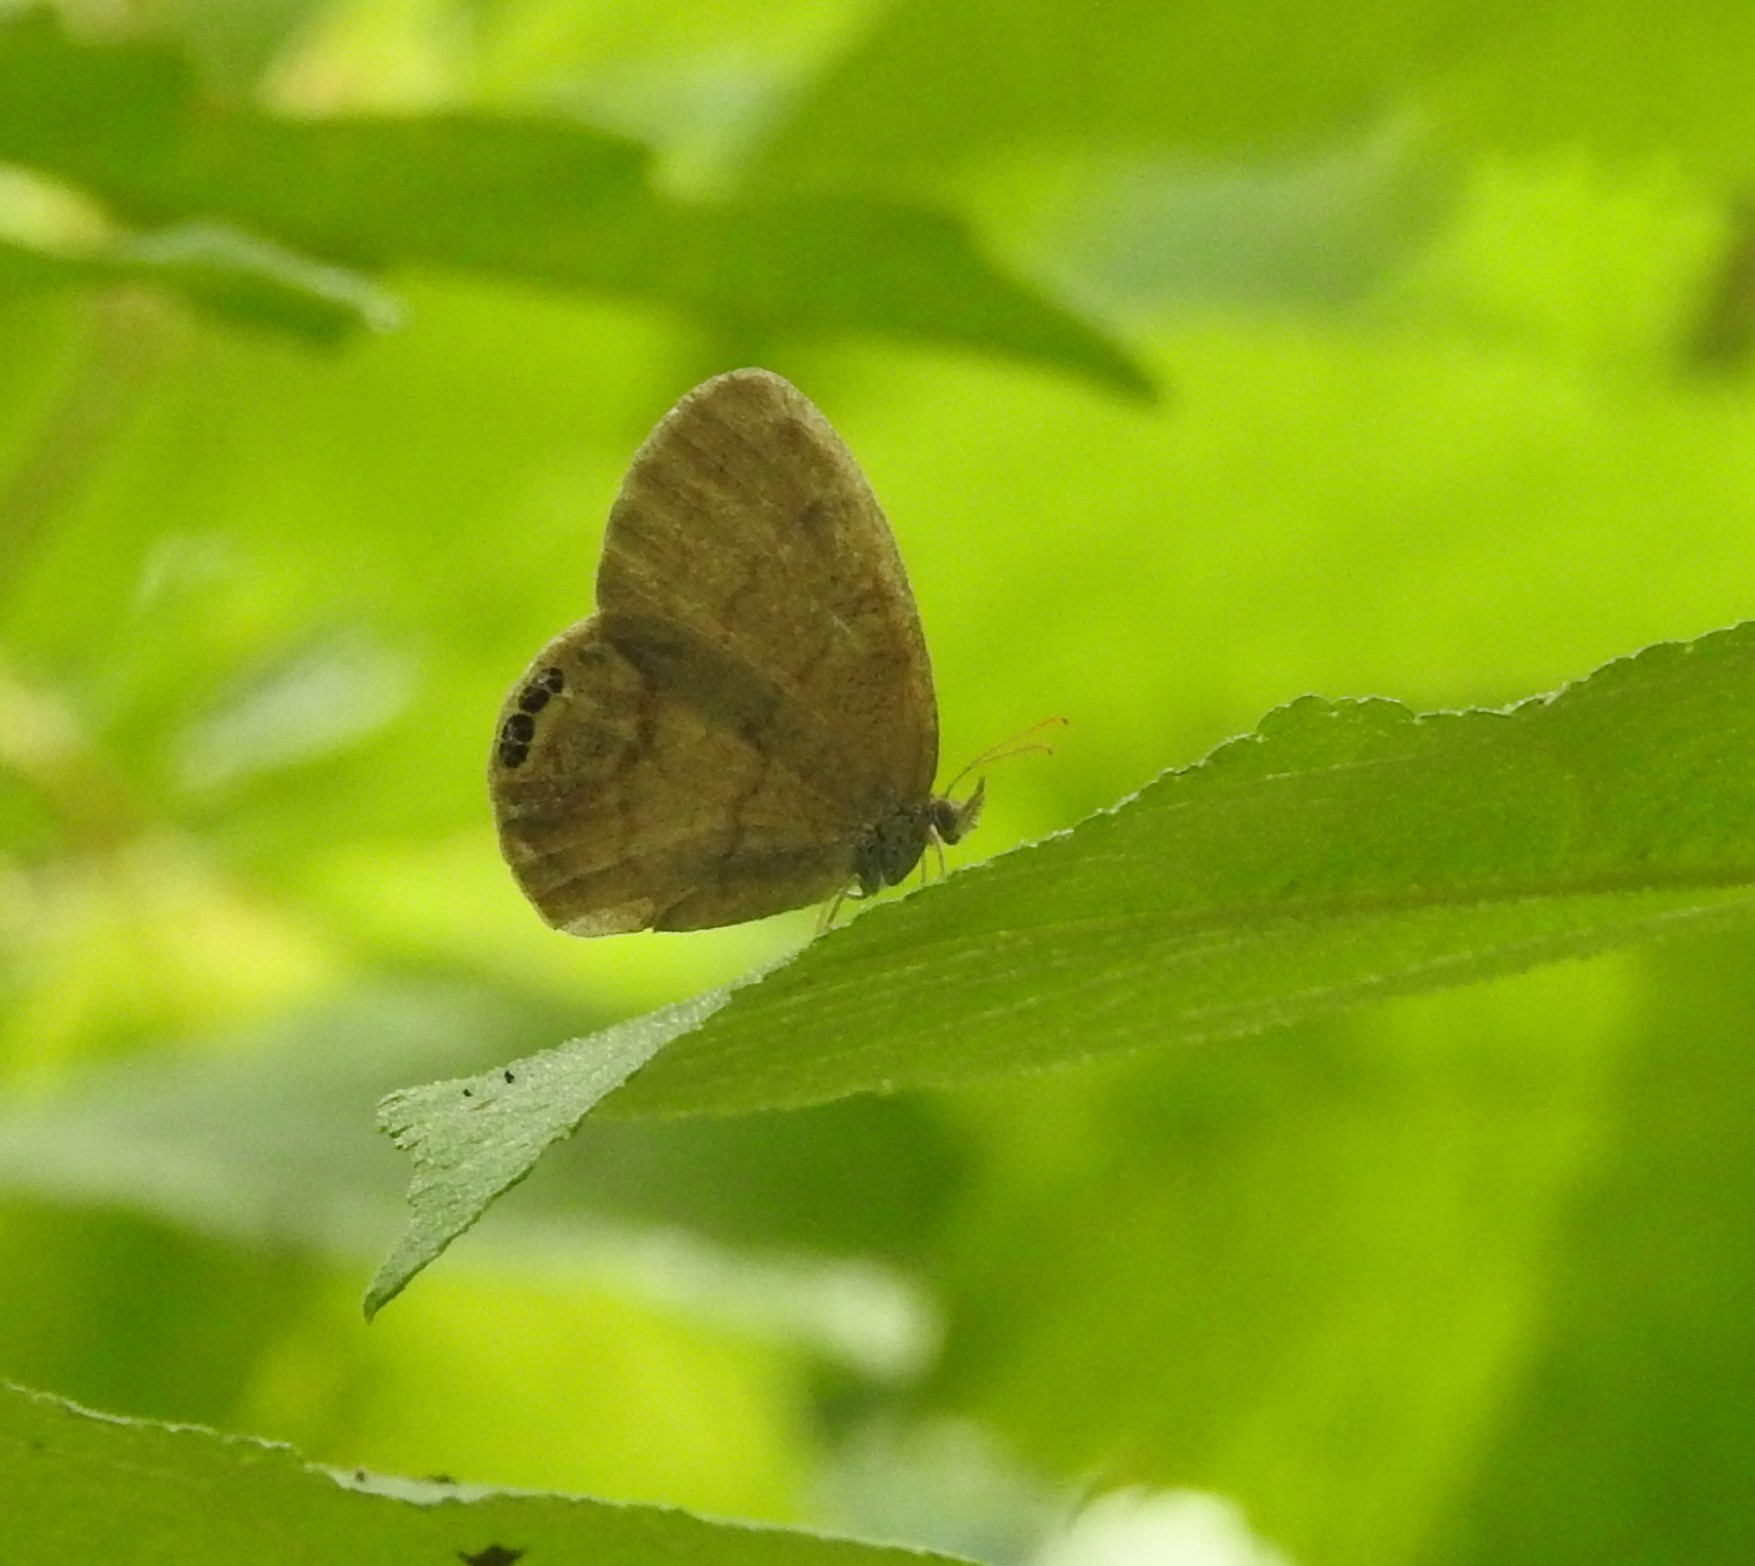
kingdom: Animalia
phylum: Arthropoda
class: Insecta
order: Lepidoptera
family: Nymphalidae
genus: Euptychia
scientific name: Euptychia cornelius
